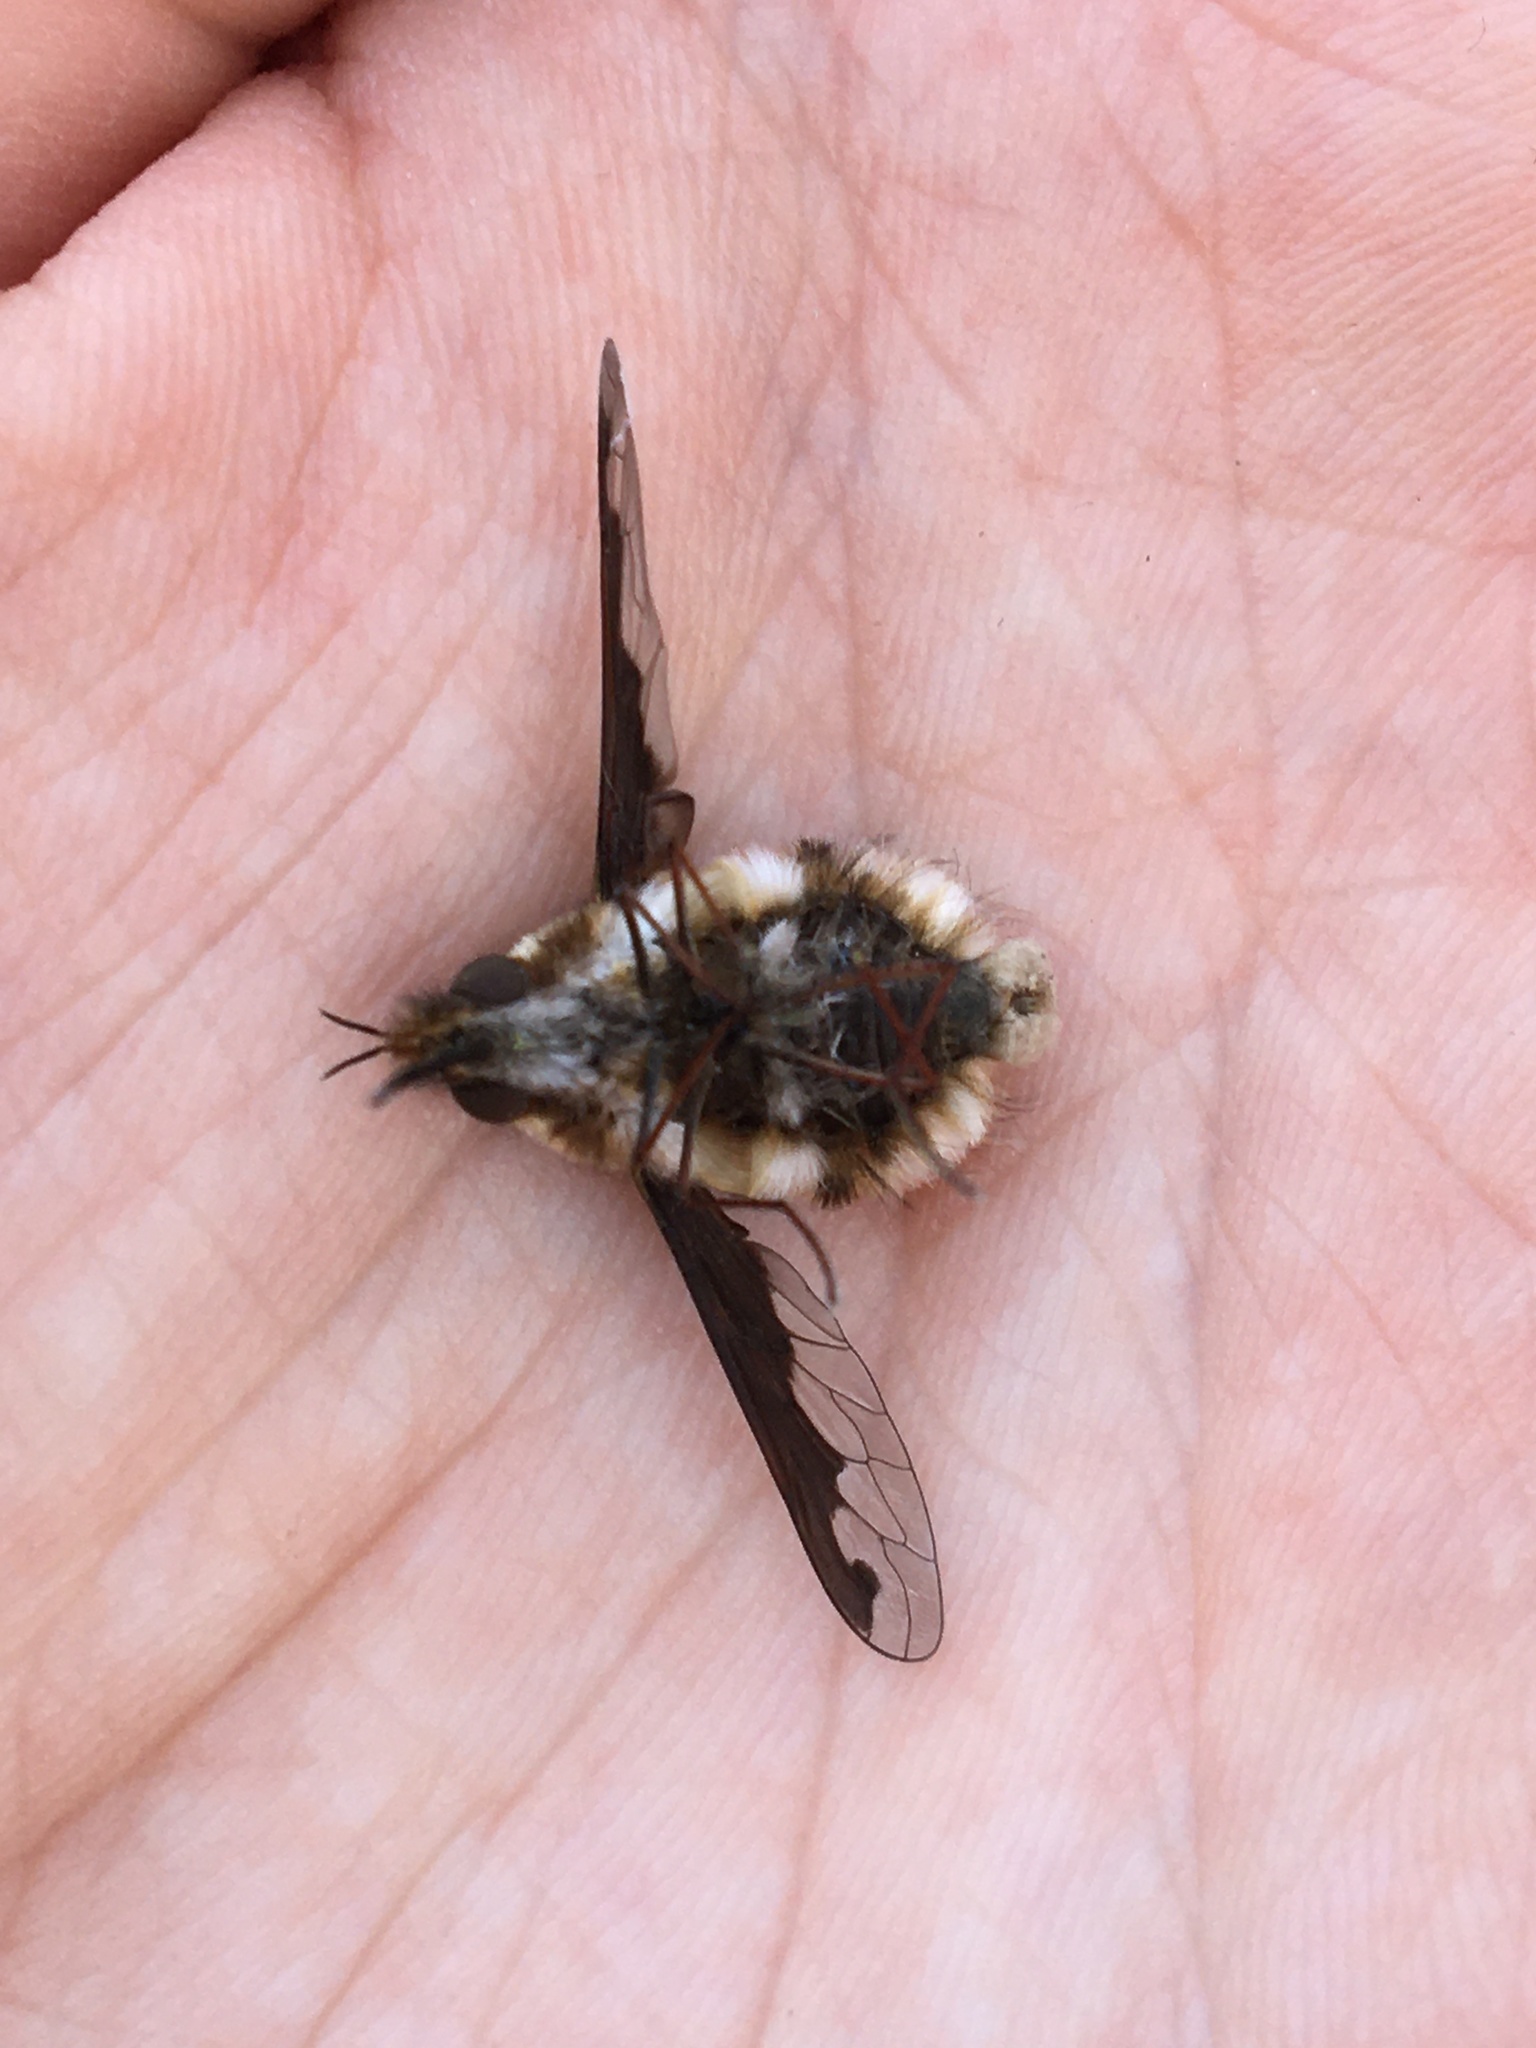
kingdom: Animalia
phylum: Arthropoda
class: Insecta
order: Diptera
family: Bombyliidae
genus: Bombylius
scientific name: Bombylius major
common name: Bee fly
